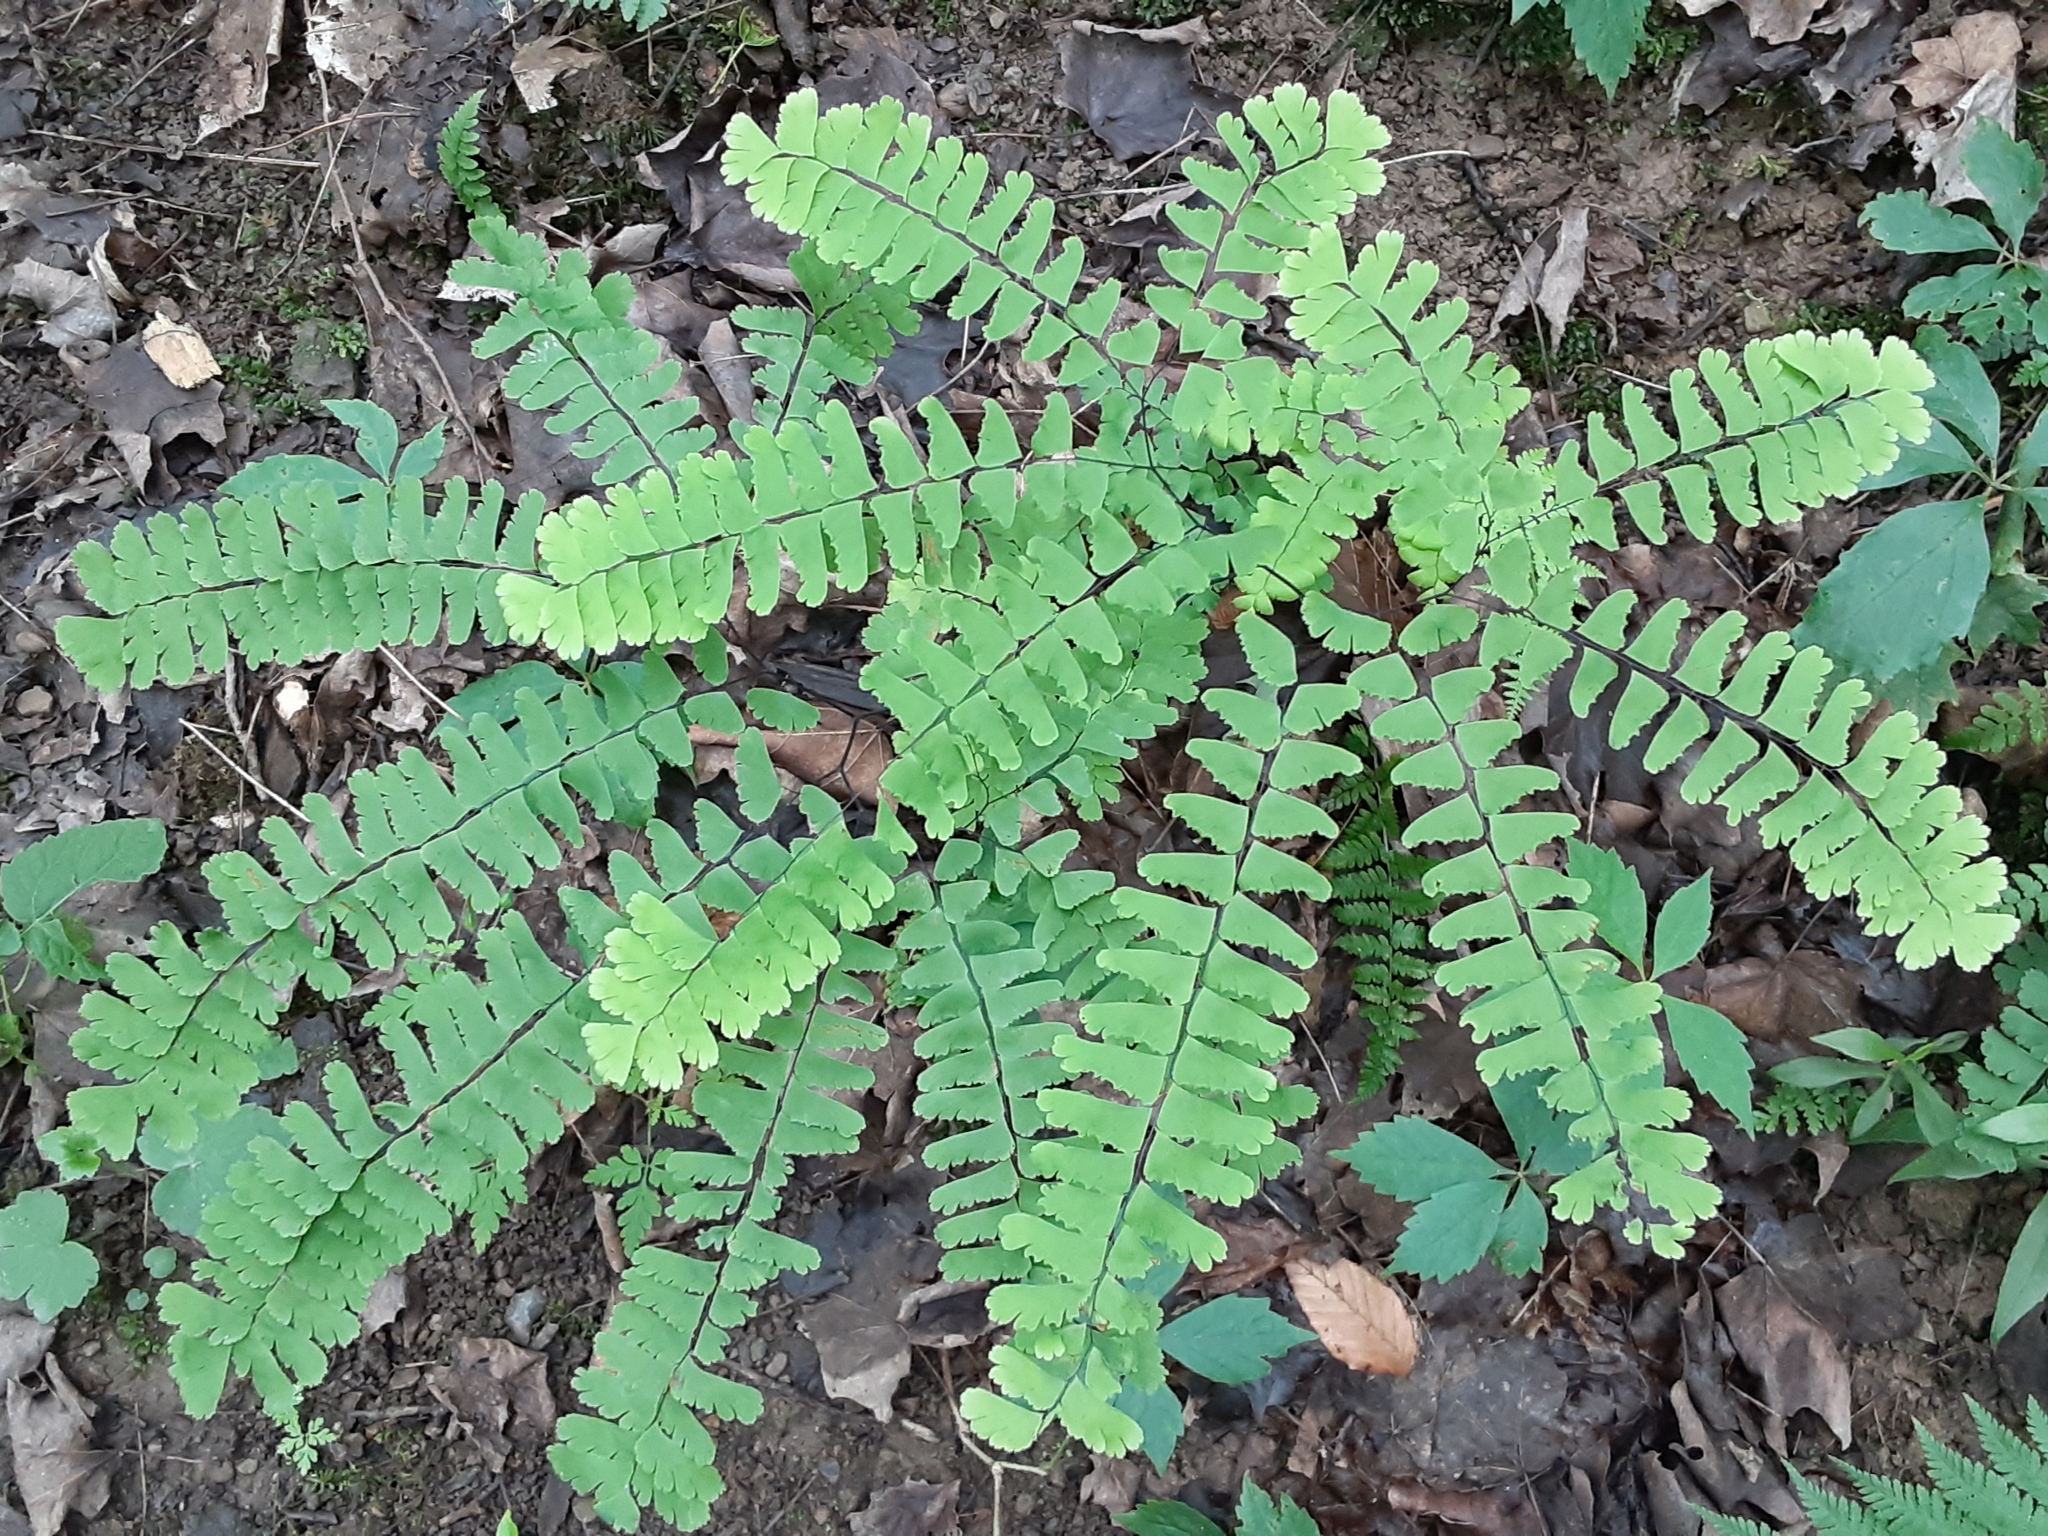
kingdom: Plantae
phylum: Tracheophyta
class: Polypodiopsida
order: Polypodiales
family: Pteridaceae
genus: Adiantum
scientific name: Adiantum pedatum
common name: Five-finger fern
